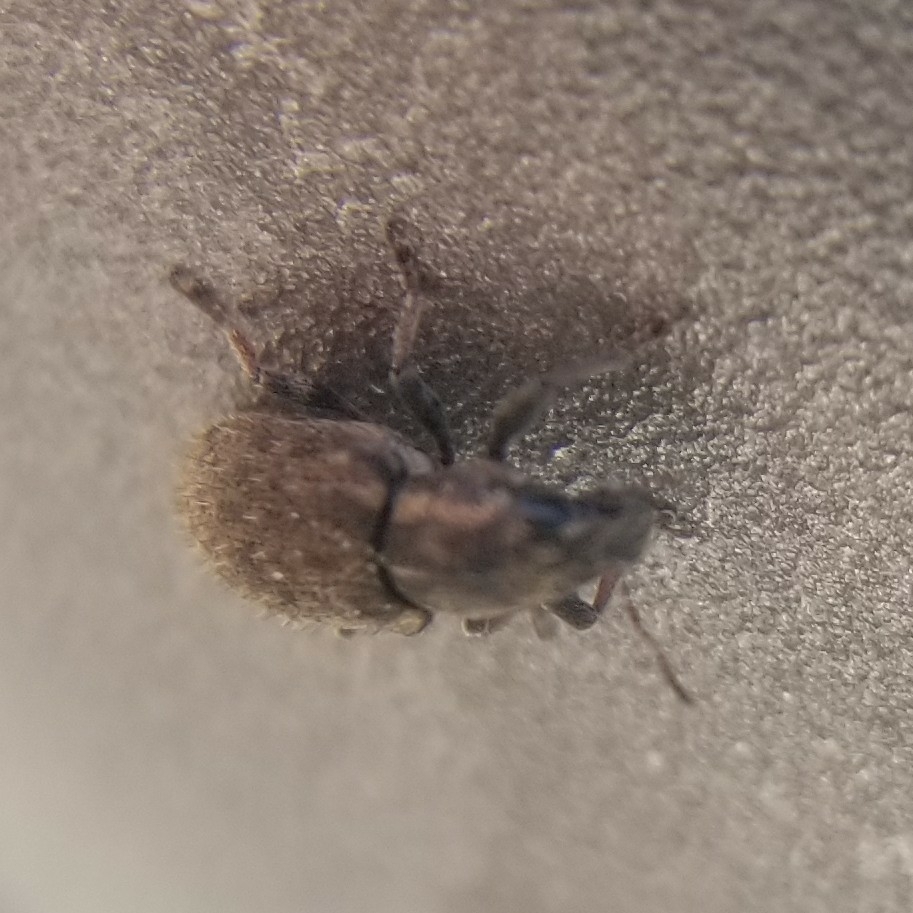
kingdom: Animalia
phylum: Arthropoda
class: Insecta
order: Coleoptera
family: Curculionidae
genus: Sitona
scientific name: Sitona hispidulus
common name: Clover weevil
